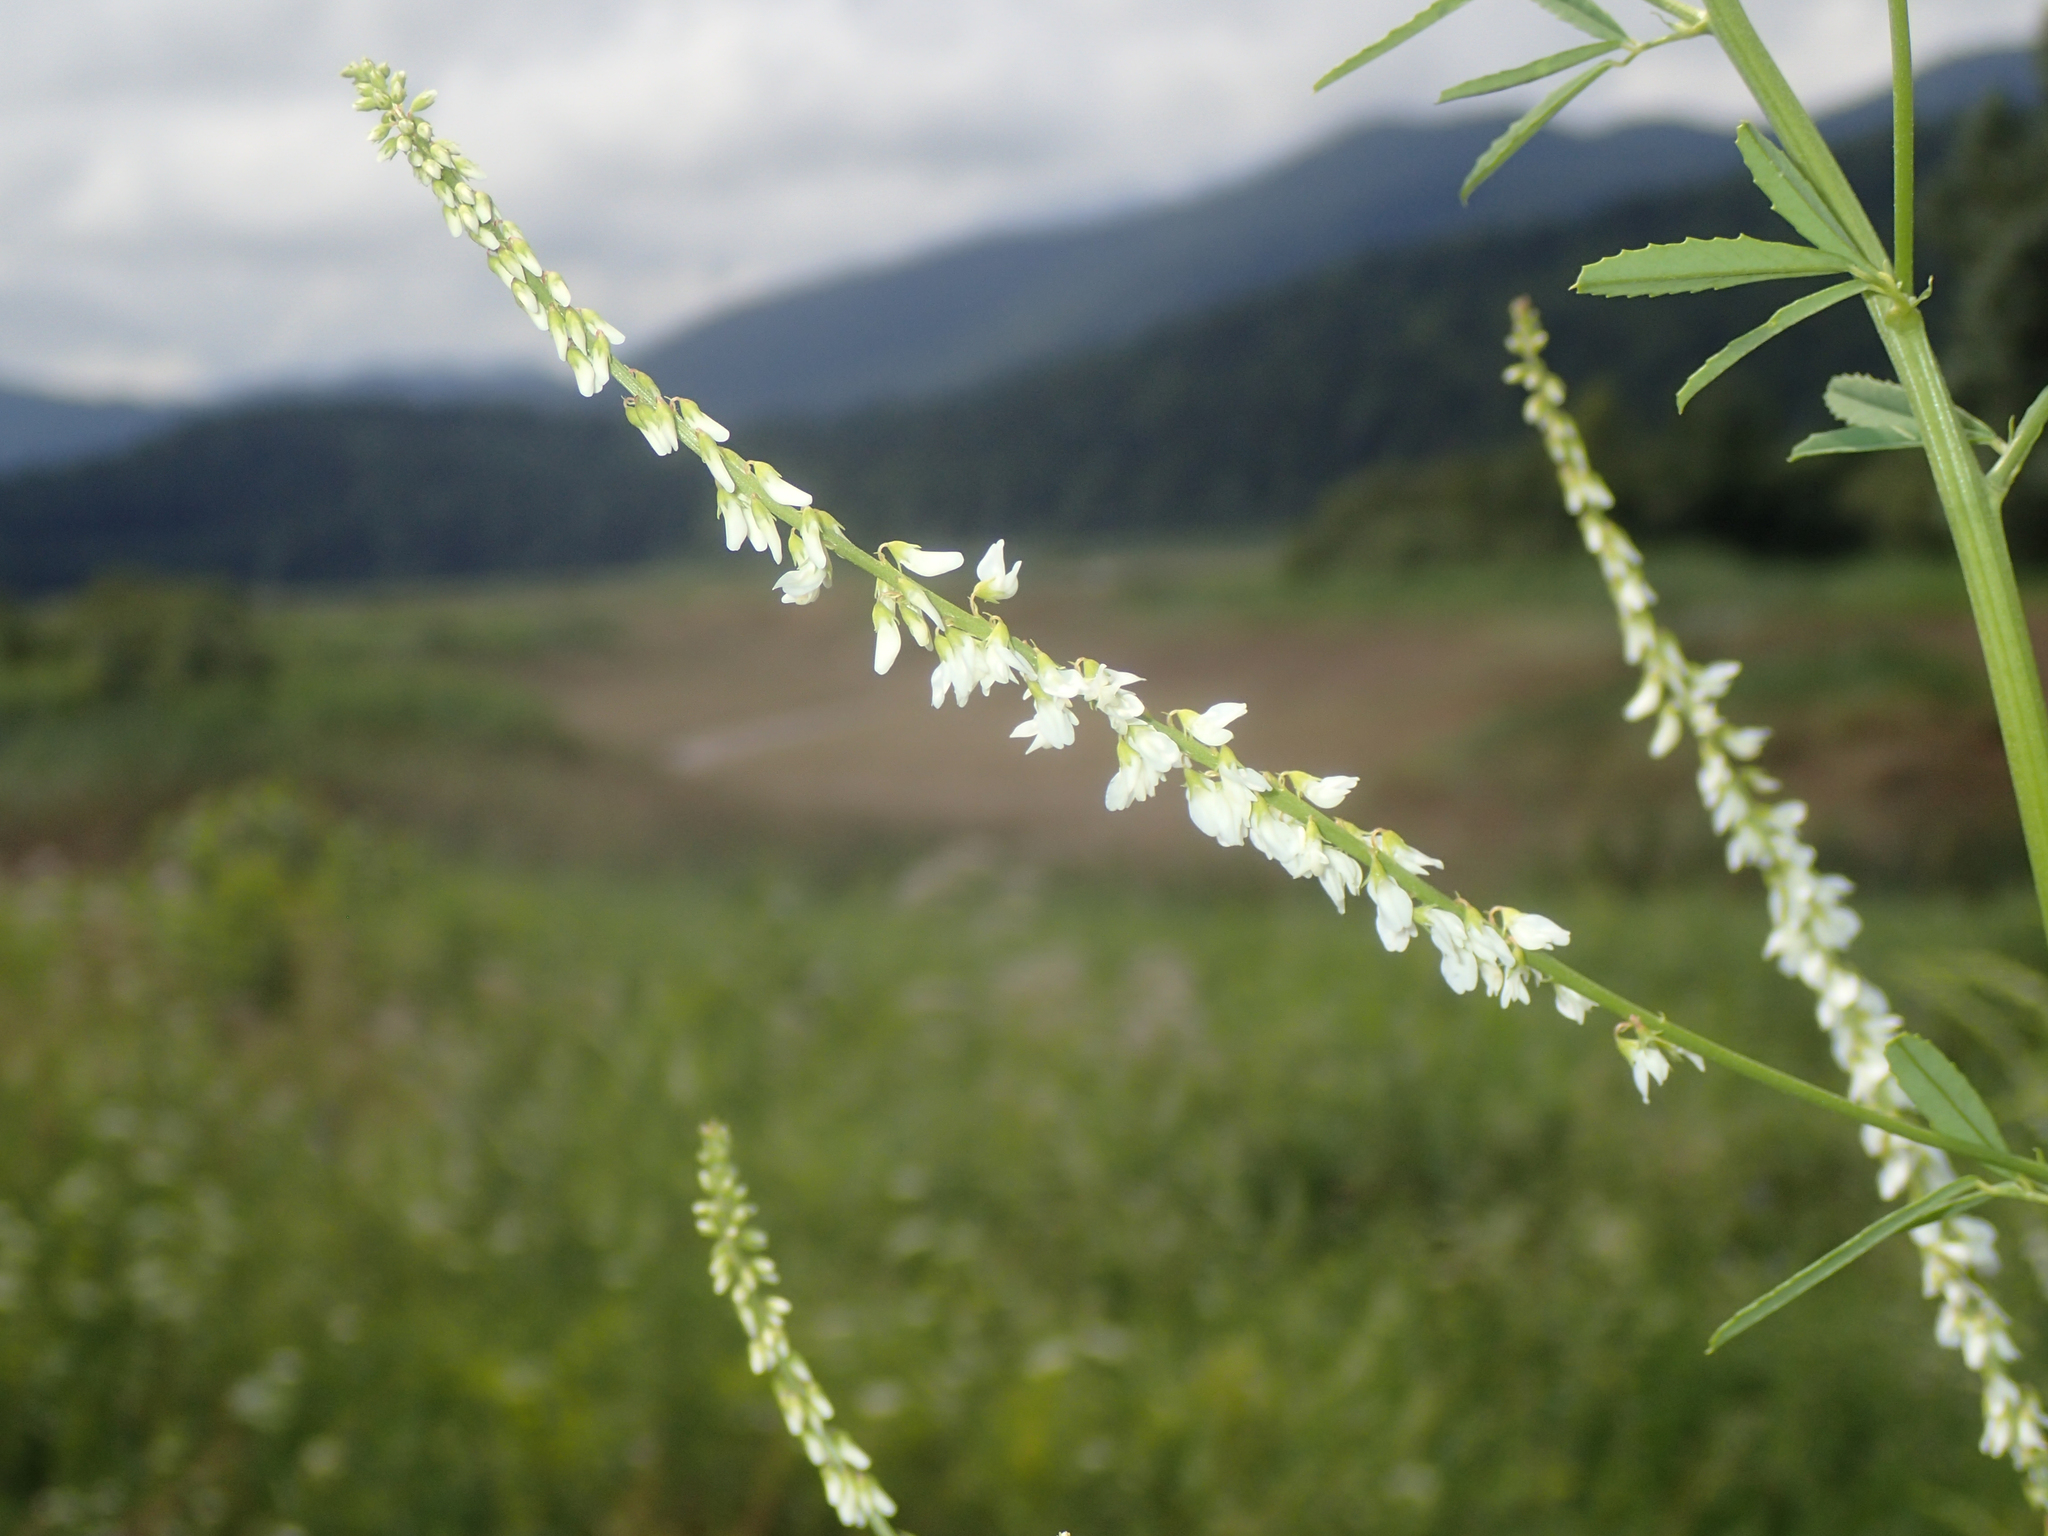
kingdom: Plantae
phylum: Tracheophyta
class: Magnoliopsida
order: Fabales
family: Fabaceae
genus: Melilotus
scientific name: Melilotus albus
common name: White melilot
